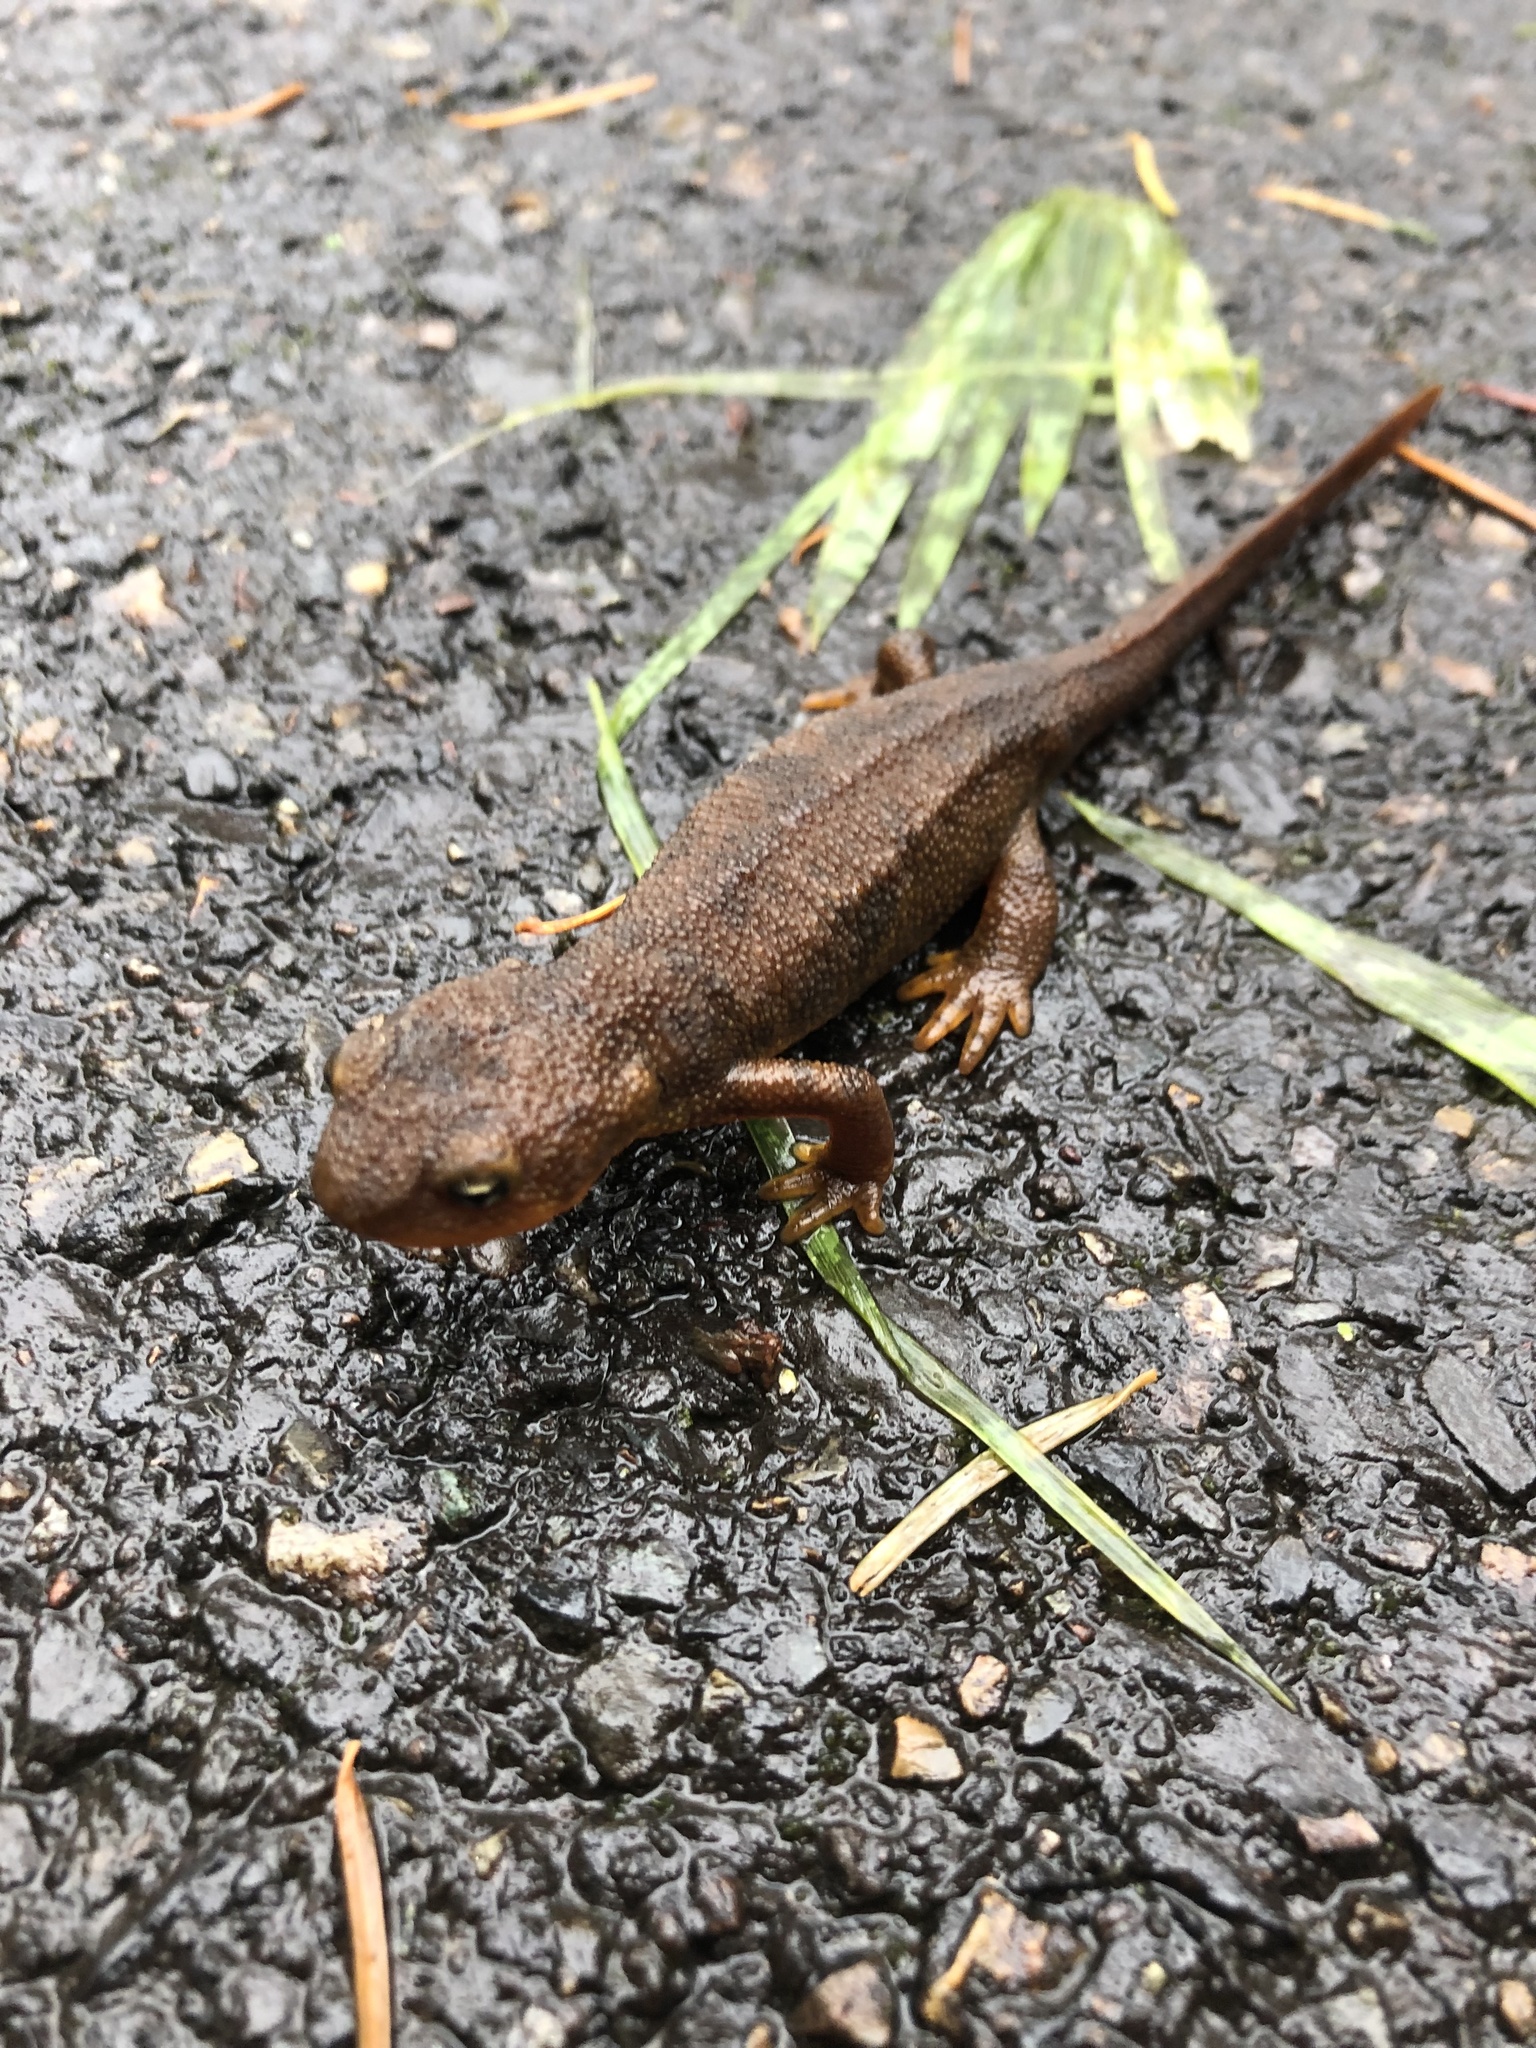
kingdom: Animalia
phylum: Chordata
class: Amphibia
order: Caudata
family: Salamandridae
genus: Taricha
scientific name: Taricha granulosa
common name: Roughskin newt
